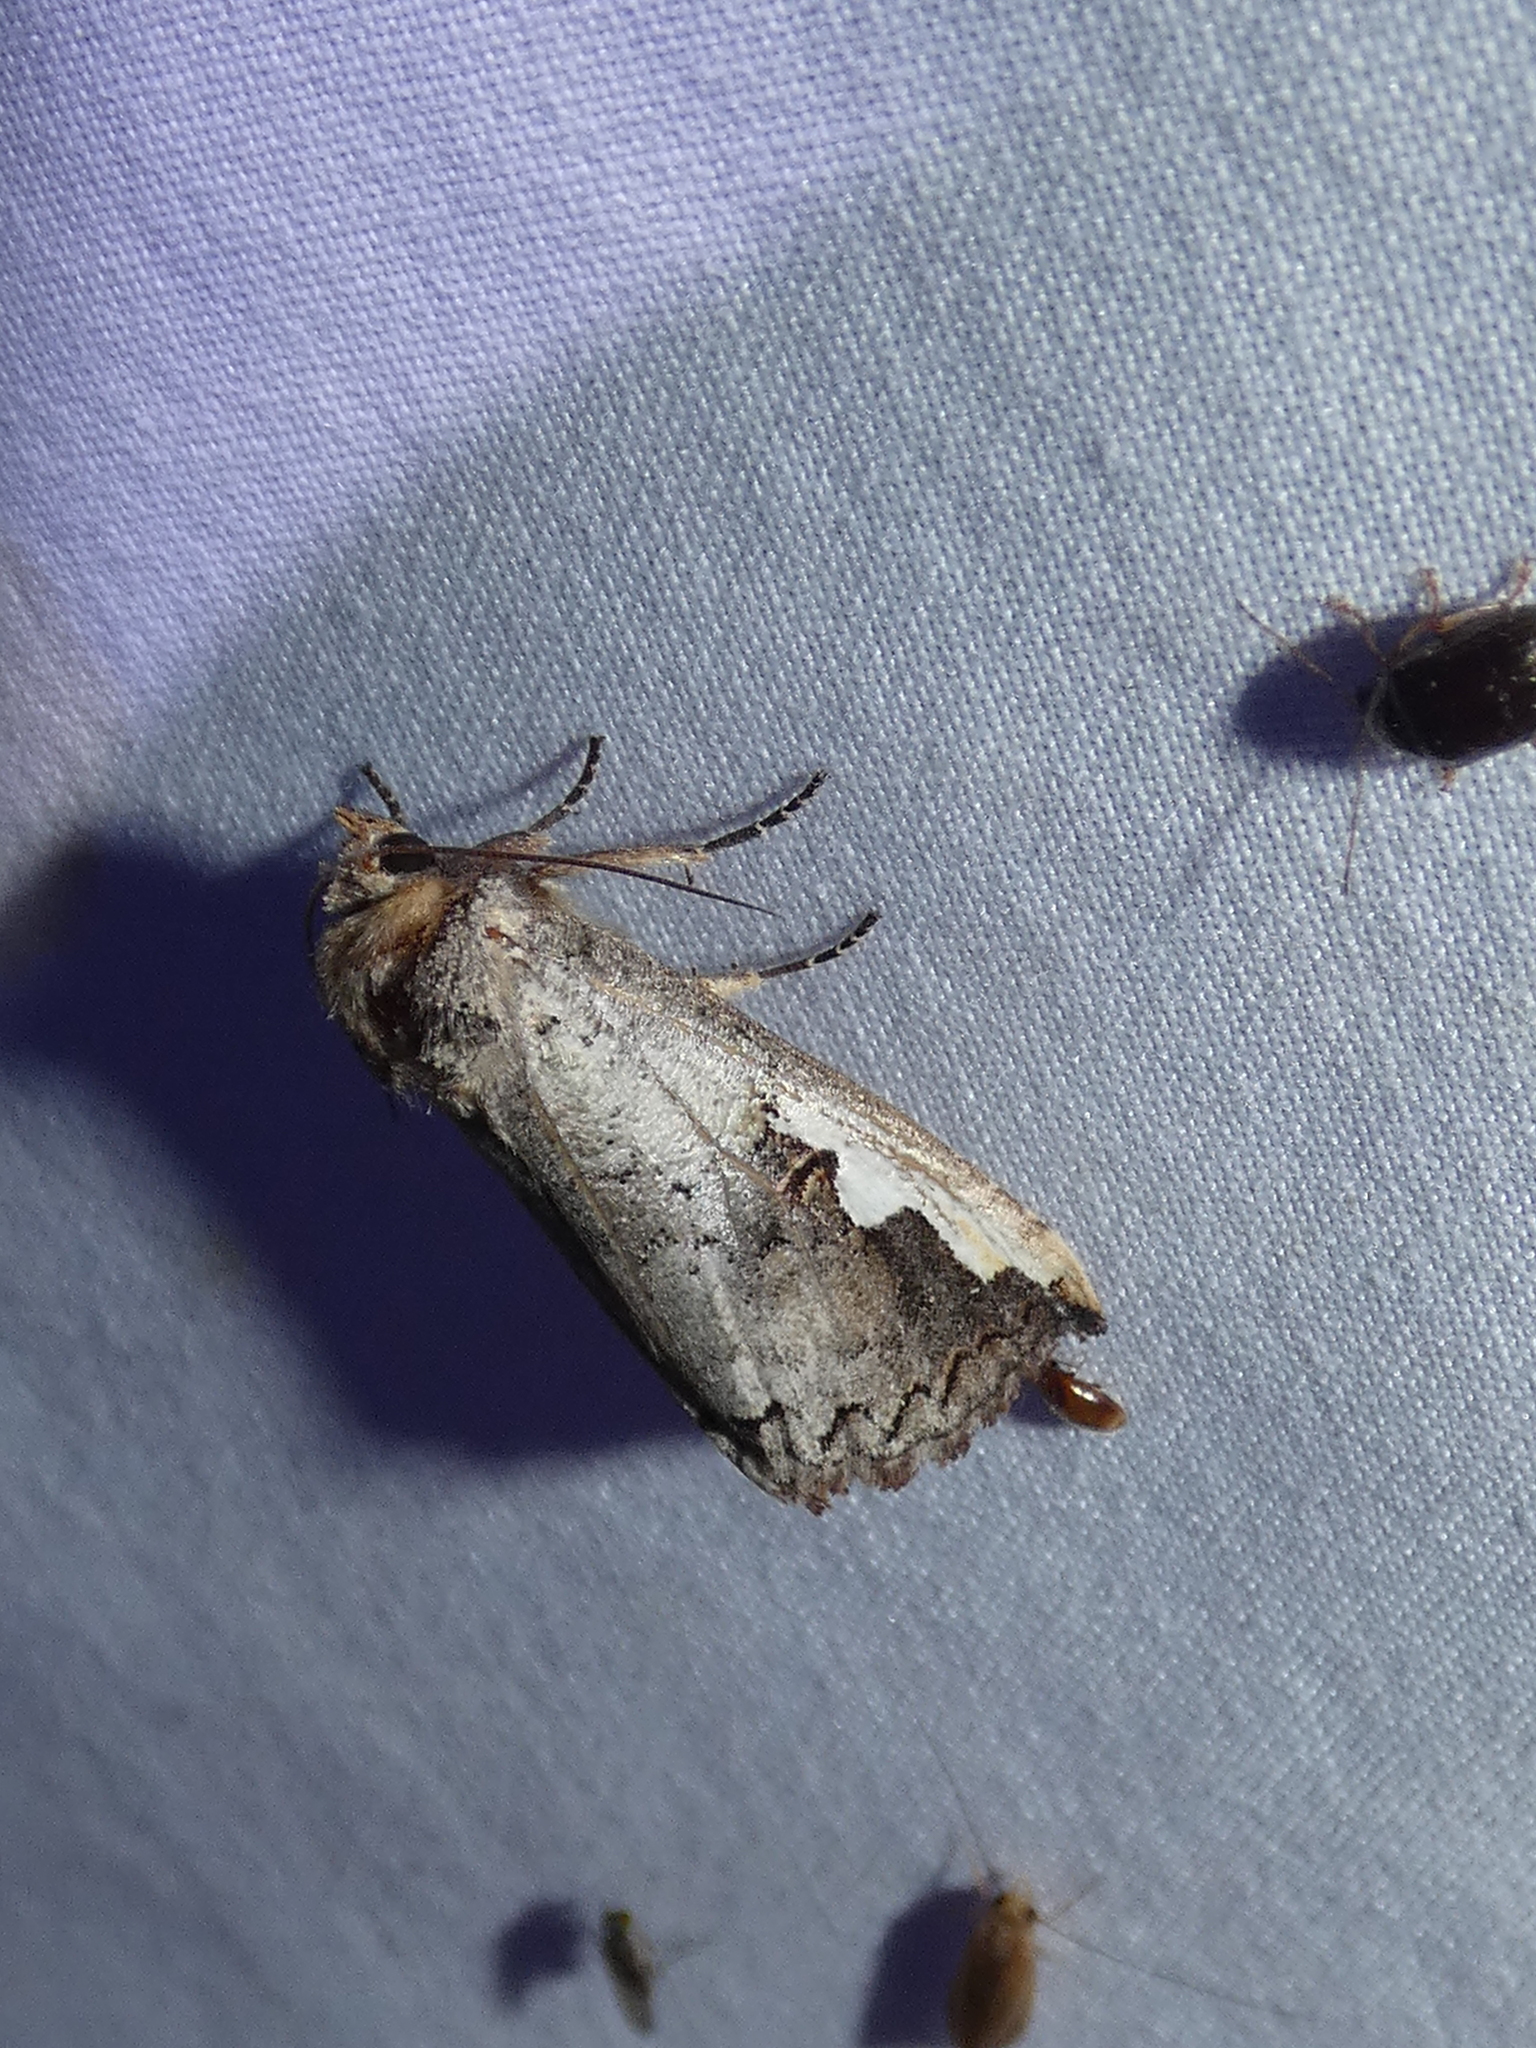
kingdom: Animalia
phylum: Arthropoda
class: Insecta
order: Lepidoptera
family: Notodontidae
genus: Symmerista
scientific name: Symmerista albifrons
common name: White-headed prominent
